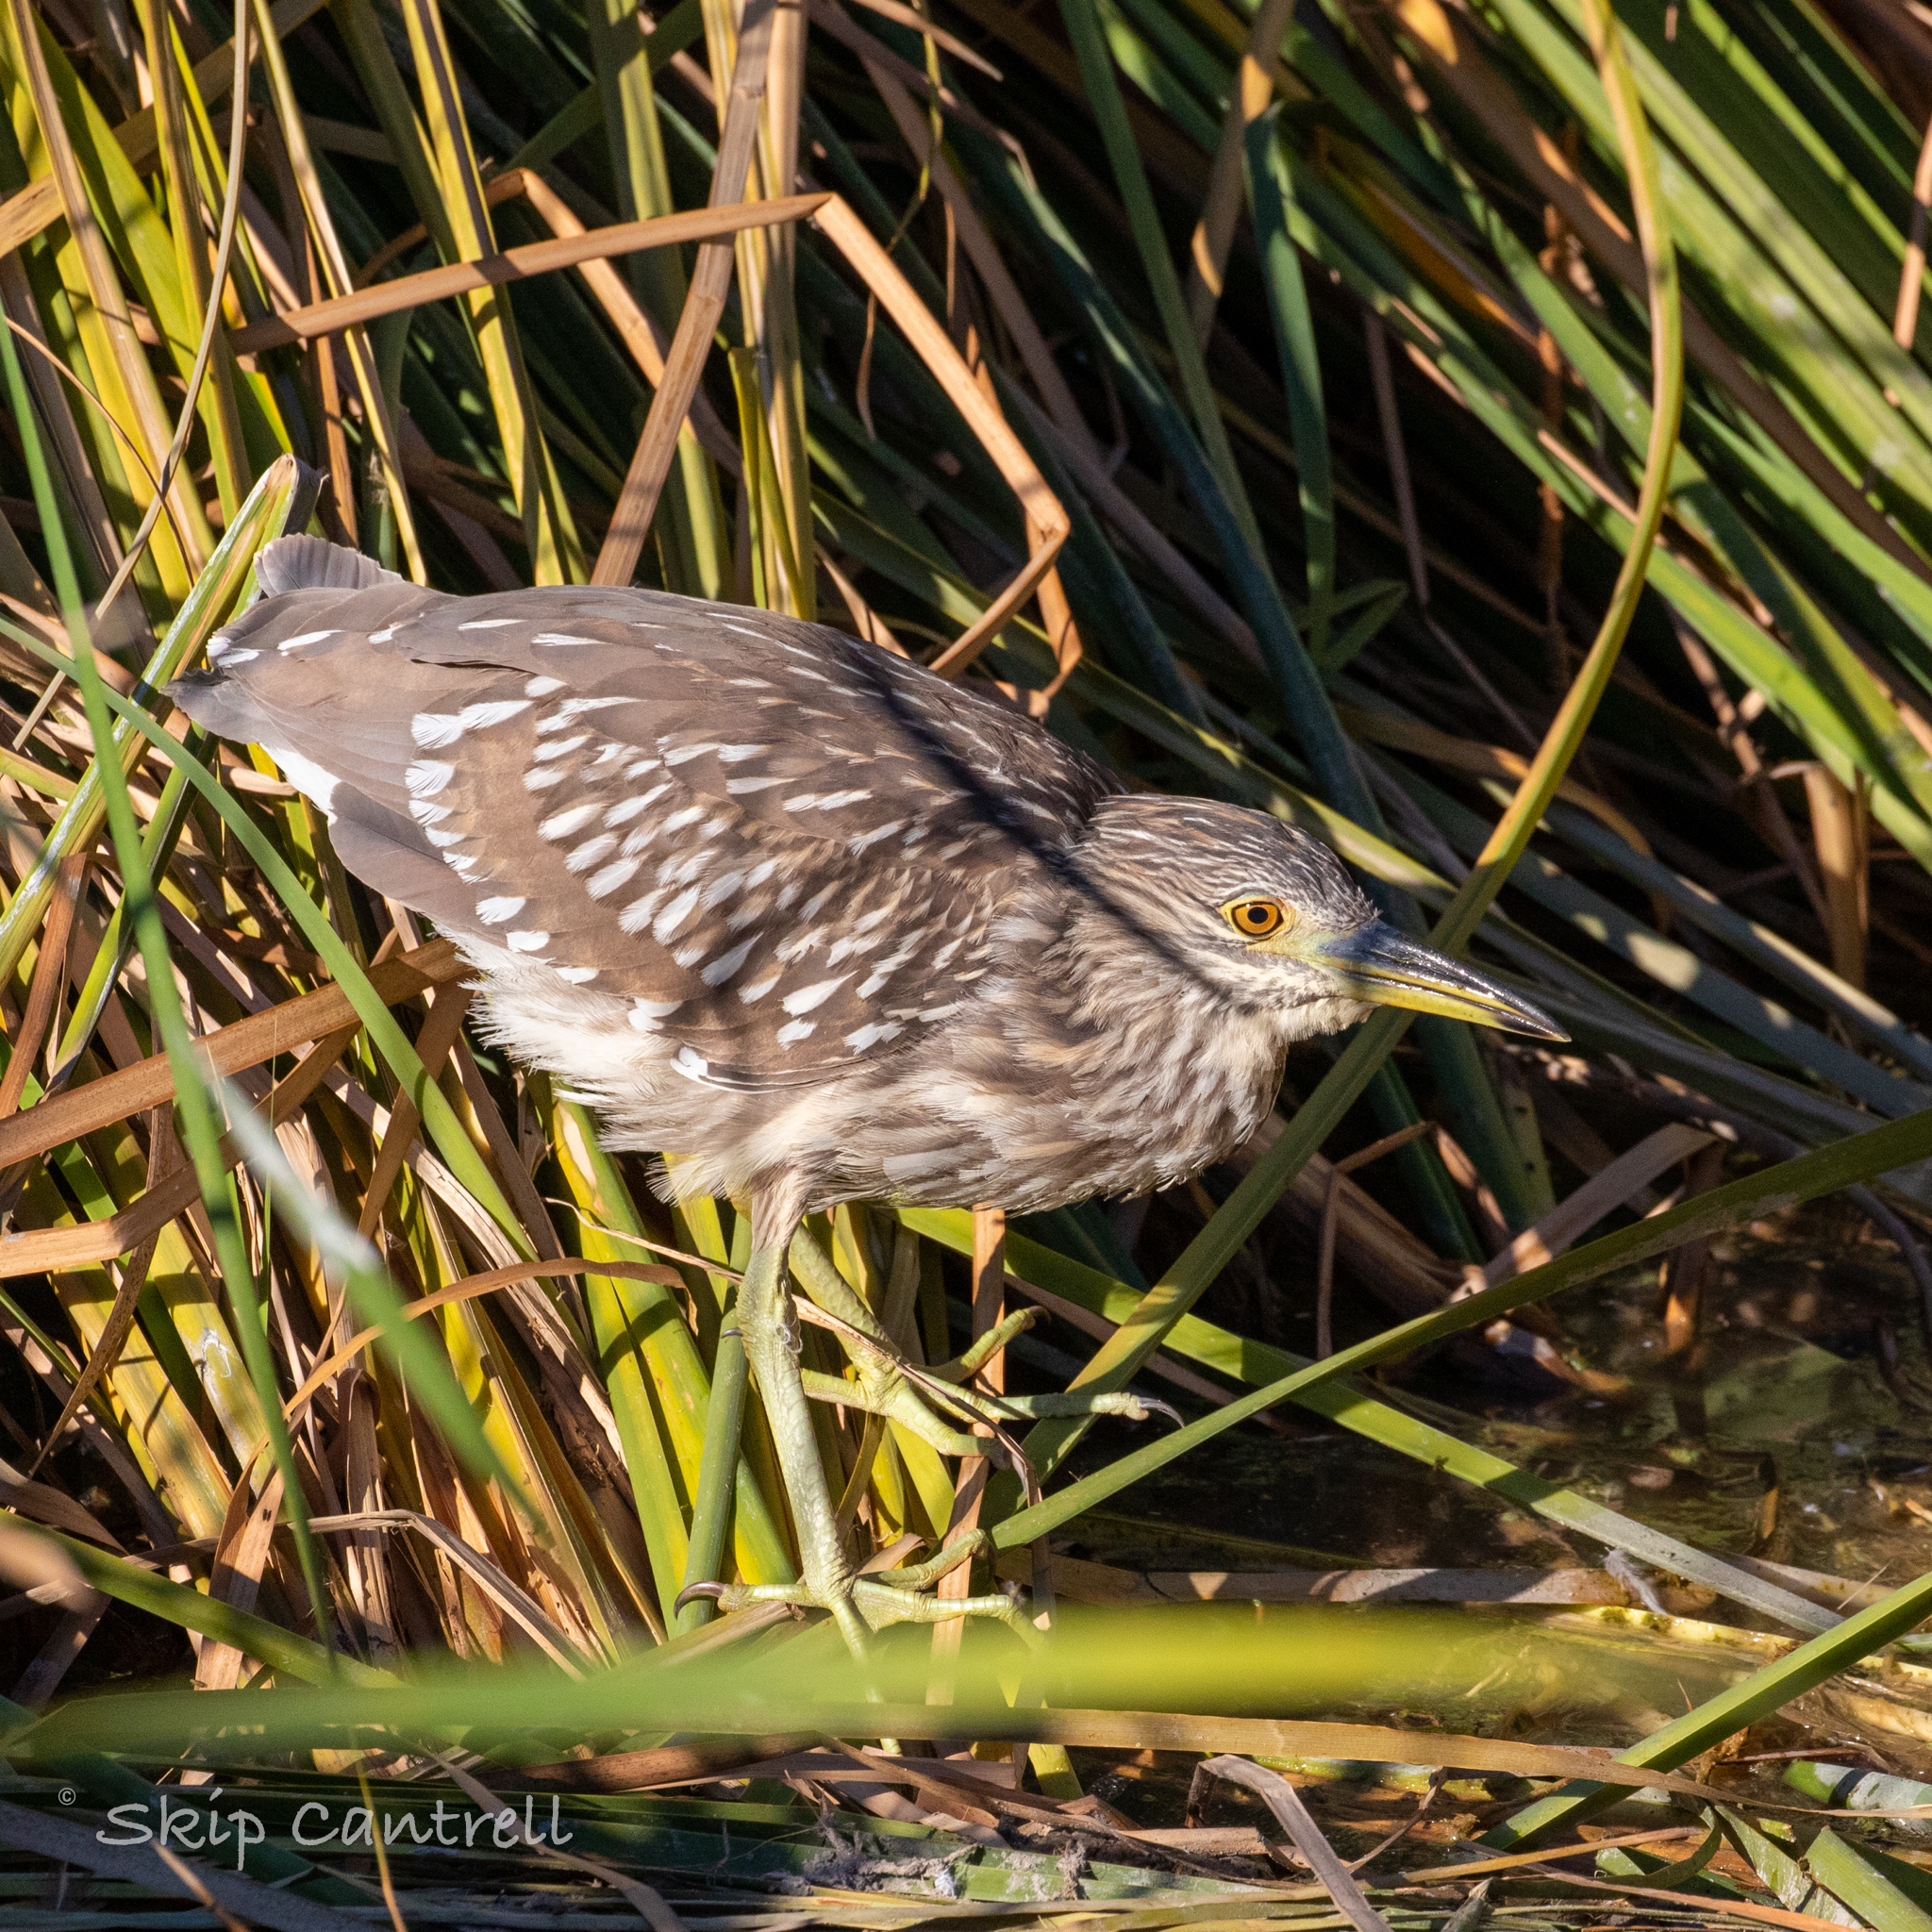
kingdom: Animalia
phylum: Chordata
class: Aves
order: Pelecaniformes
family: Ardeidae
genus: Nycticorax
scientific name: Nycticorax nycticorax
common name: Black-crowned night heron
